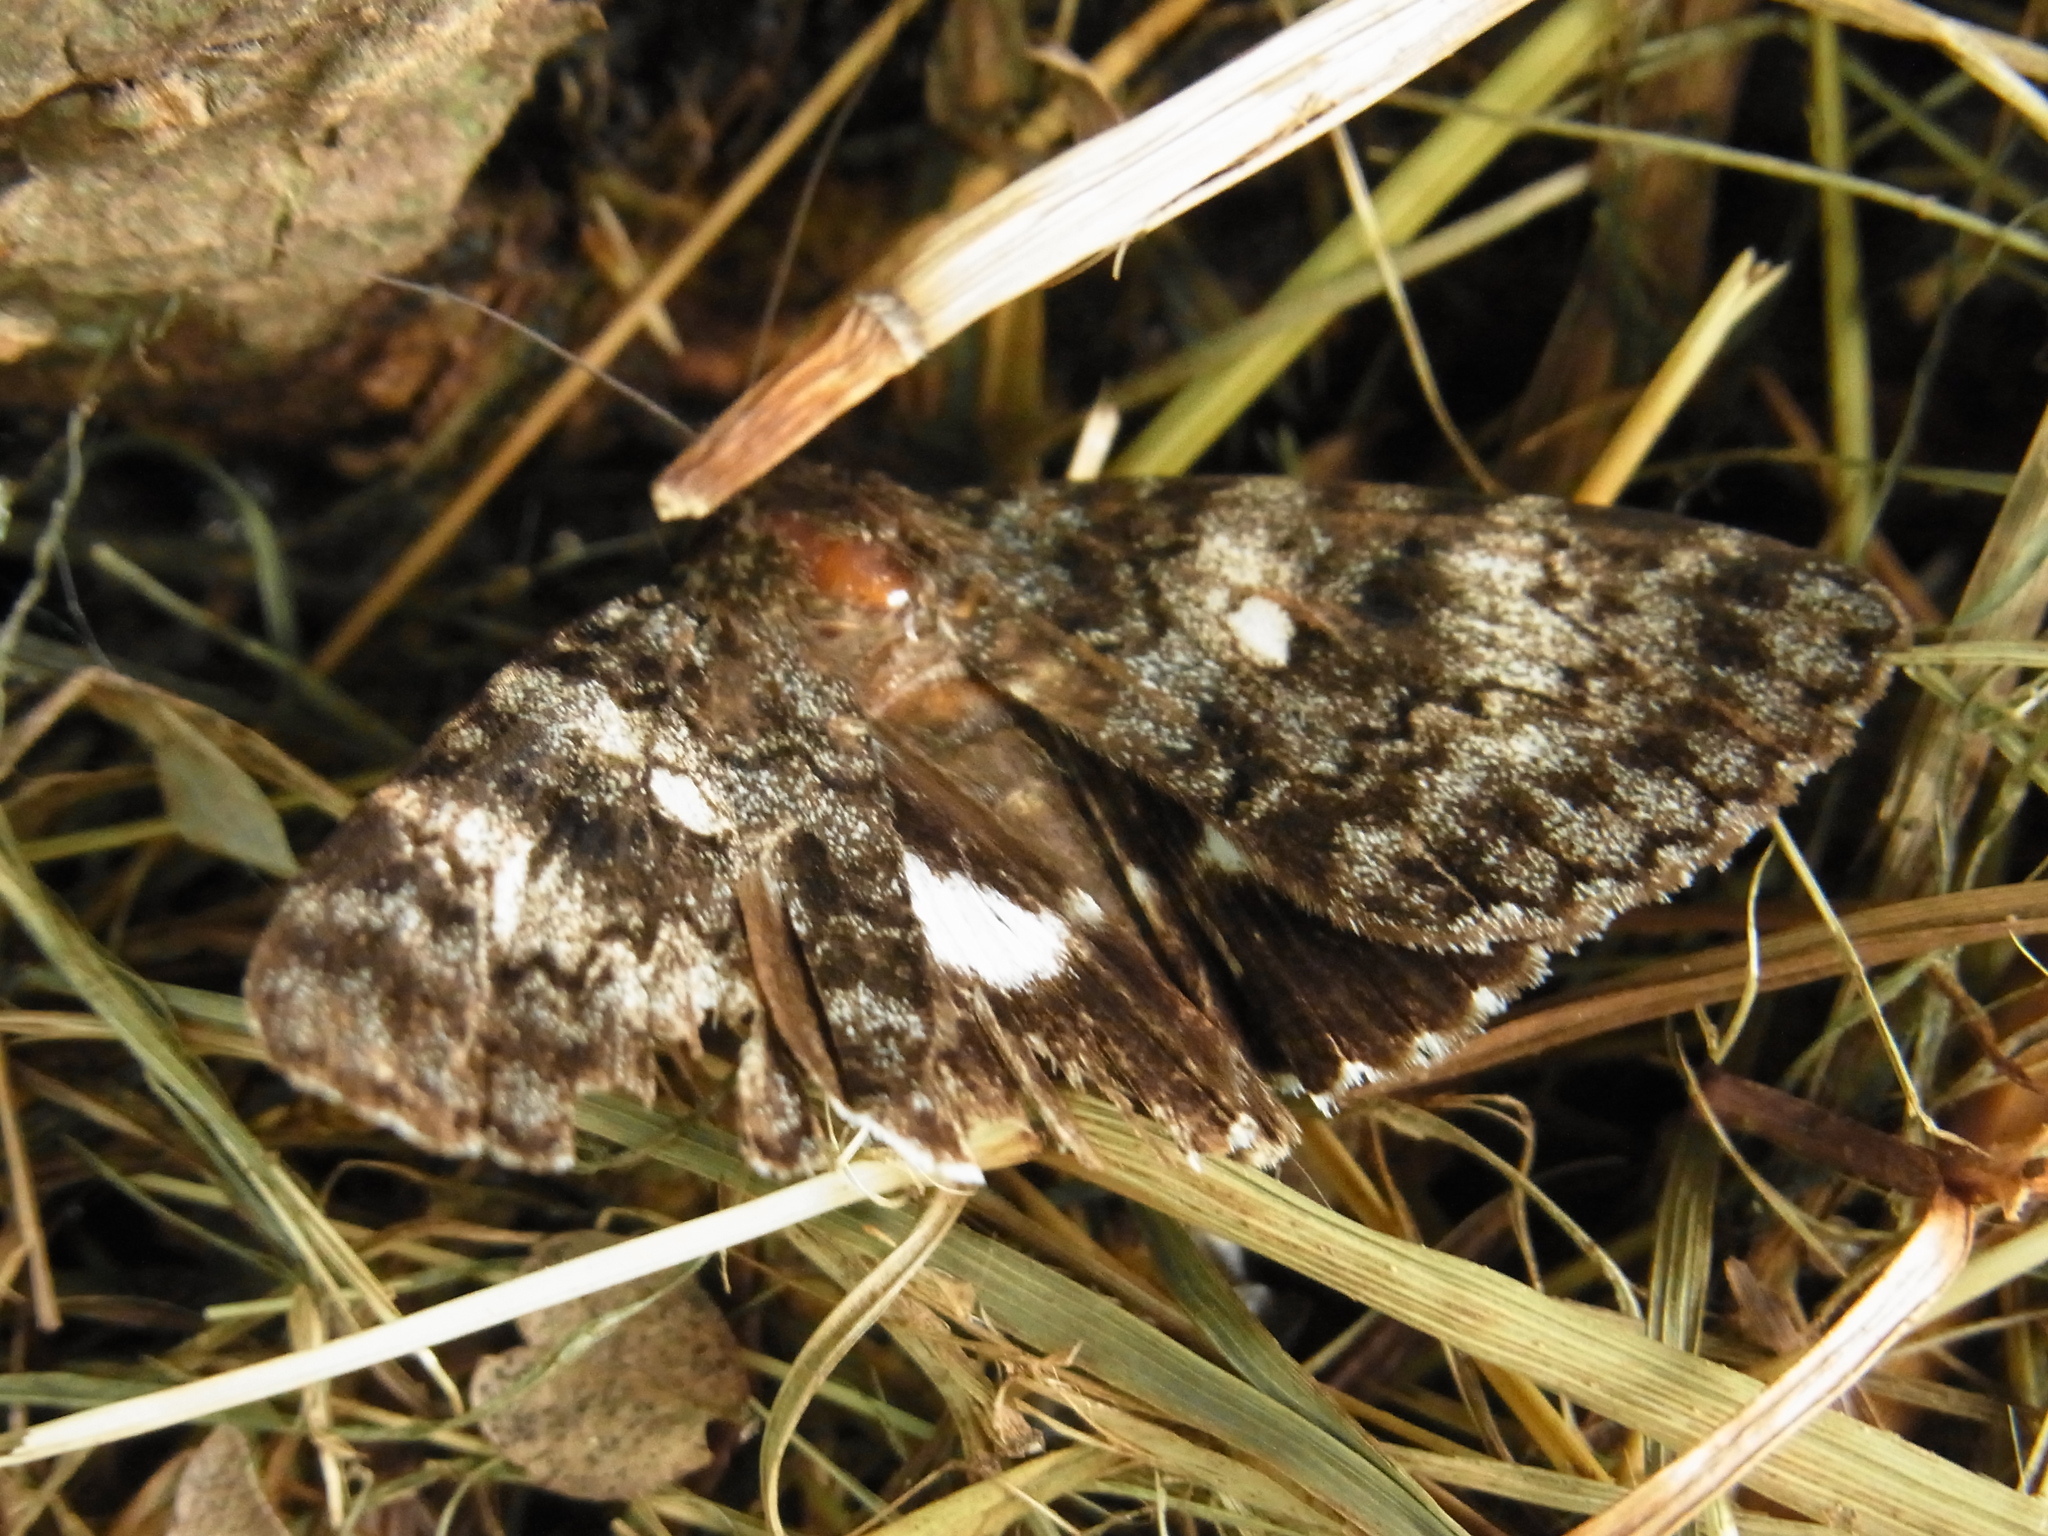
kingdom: Animalia
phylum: Arthropoda
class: Insecta
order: Lepidoptera
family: Erebidae
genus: Catocala
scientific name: Catocala actaea
